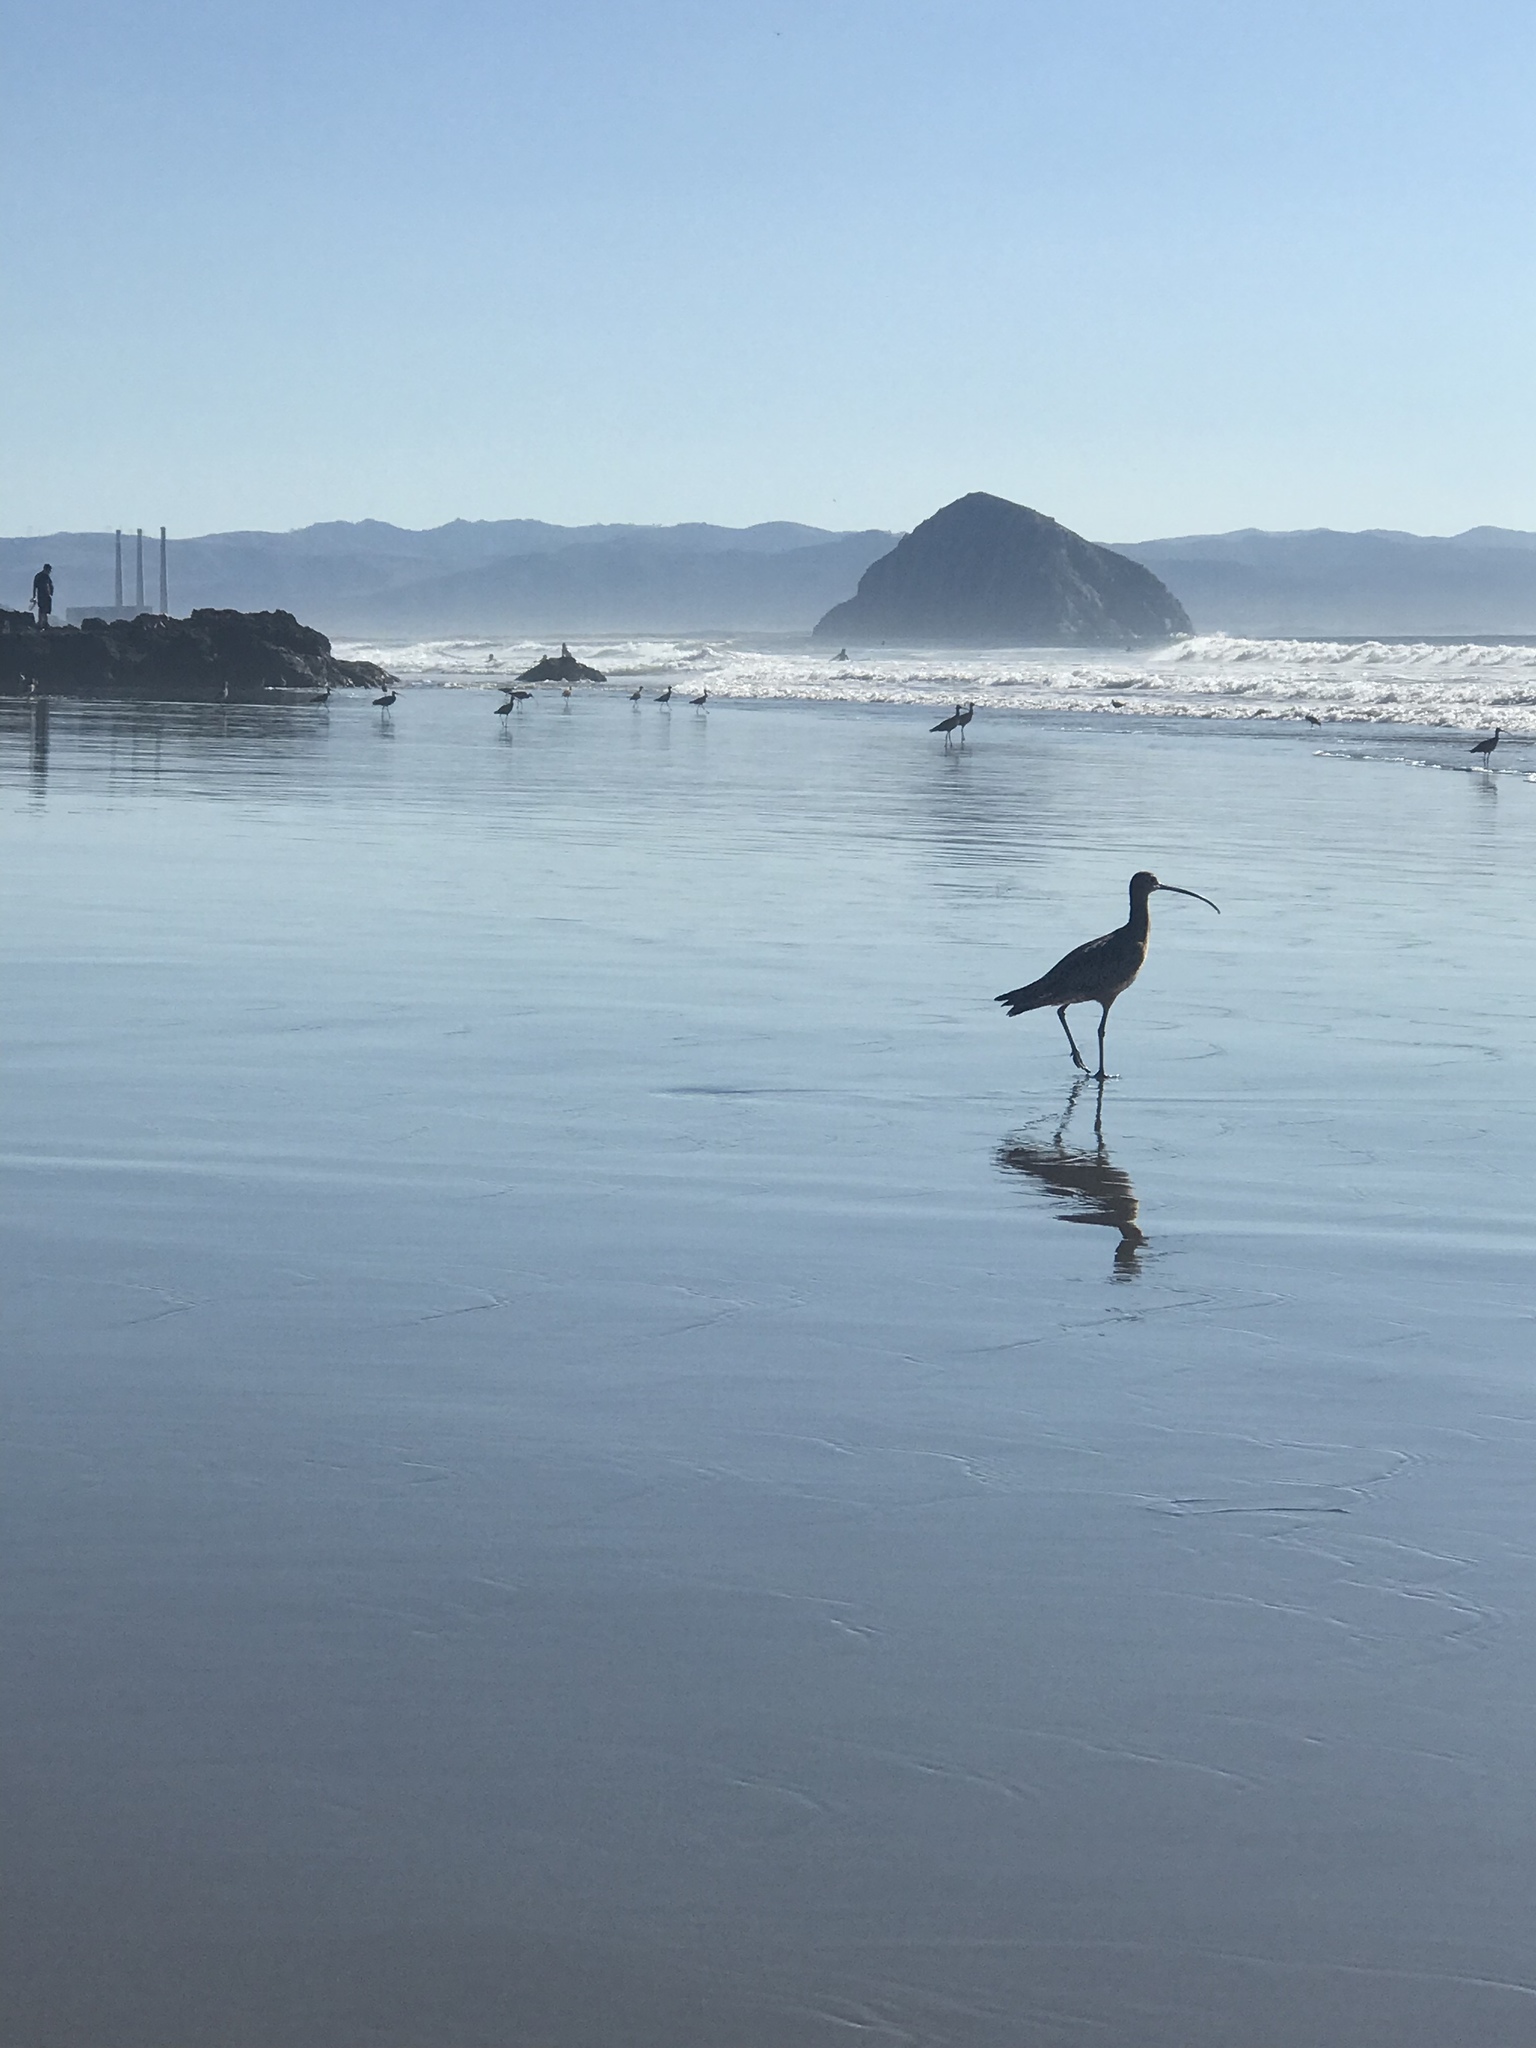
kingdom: Animalia
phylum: Chordata
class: Aves
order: Charadriiformes
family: Scolopacidae
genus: Numenius
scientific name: Numenius americanus
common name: Long-billed curlew
